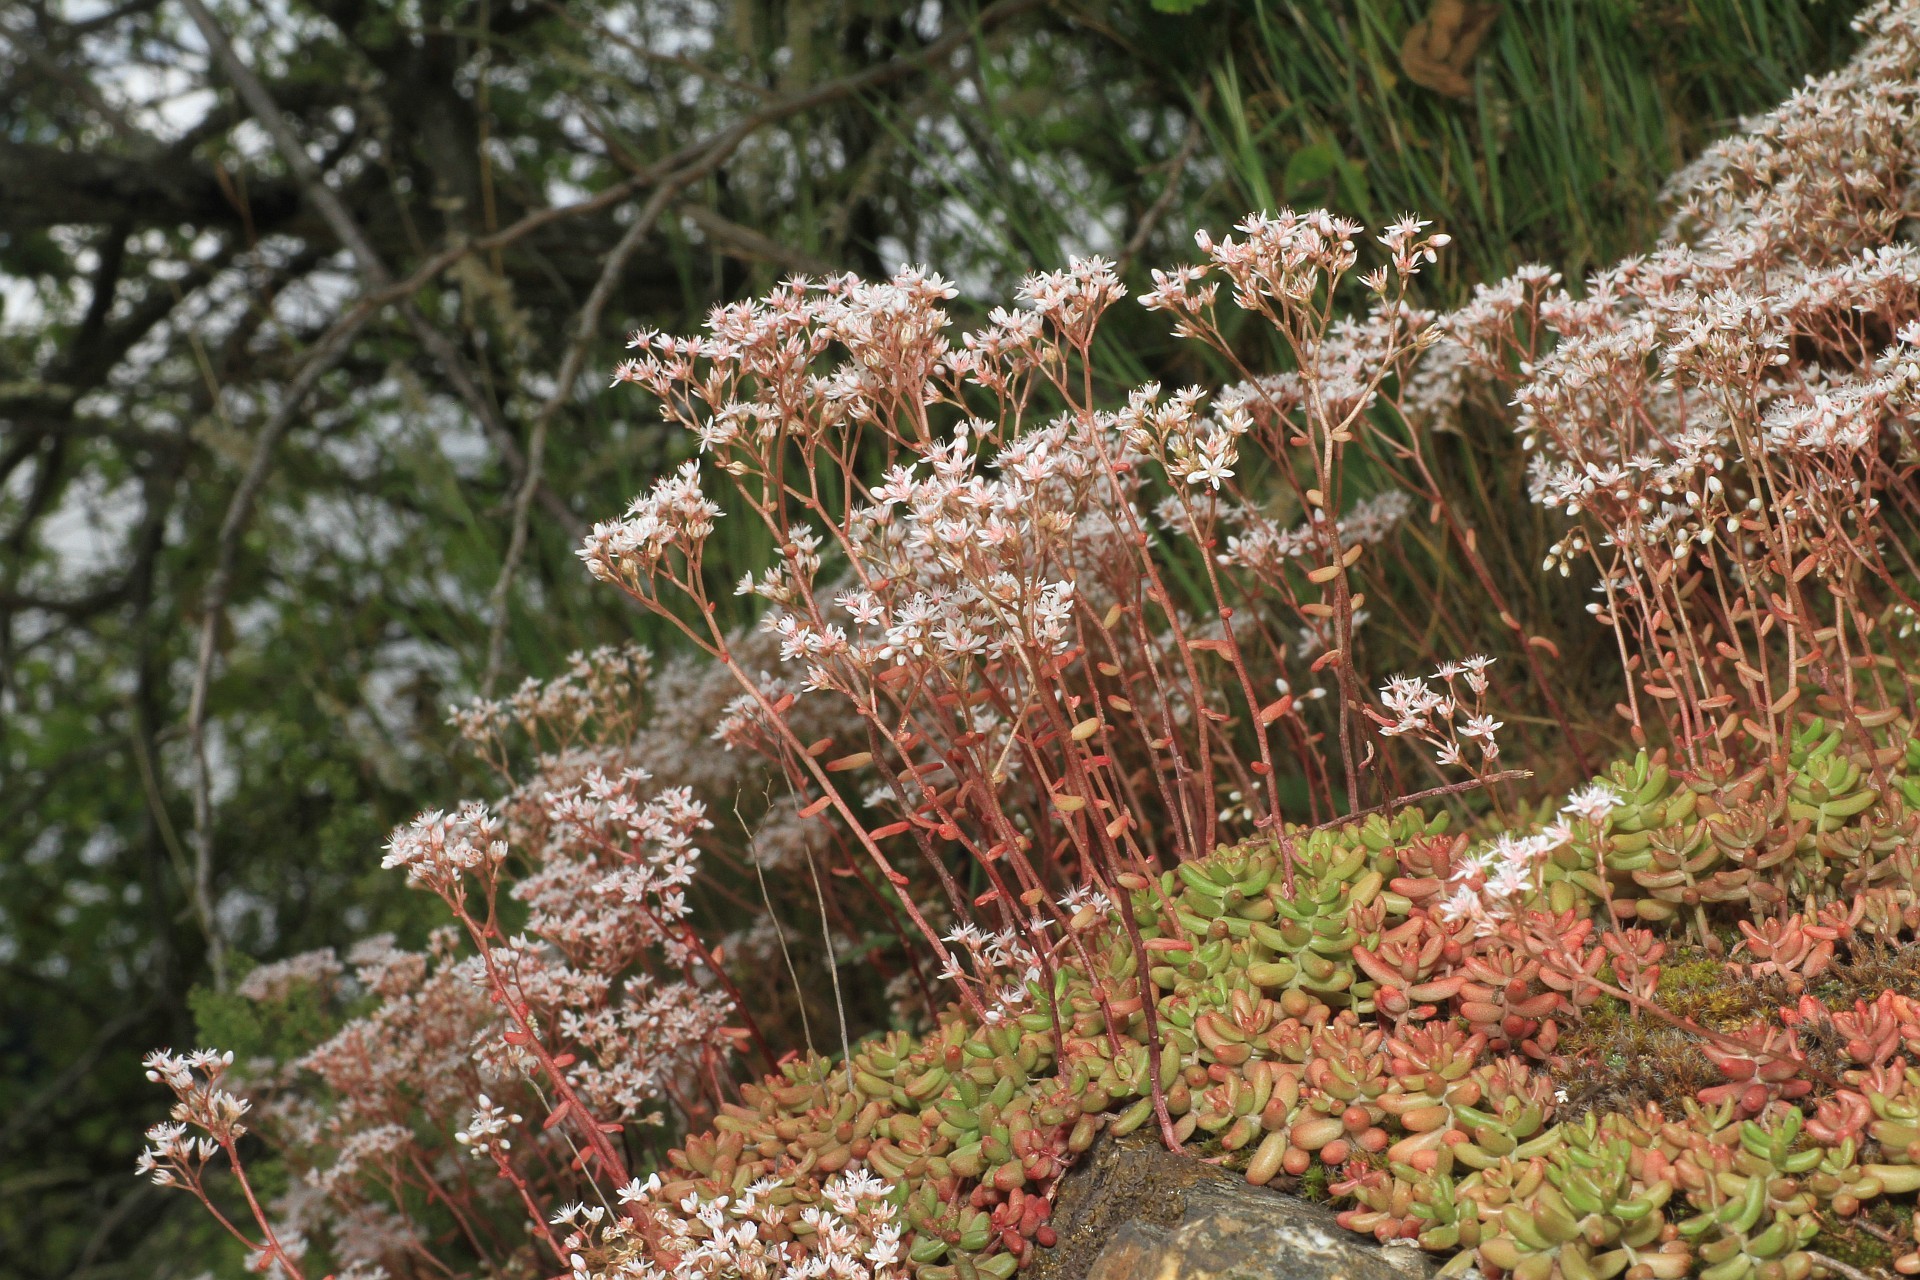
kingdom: Plantae
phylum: Tracheophyta
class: Magnoliopsida
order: Saxifragales
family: Crassulaceae
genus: Sedum
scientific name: Sedum album
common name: White stonecrop
